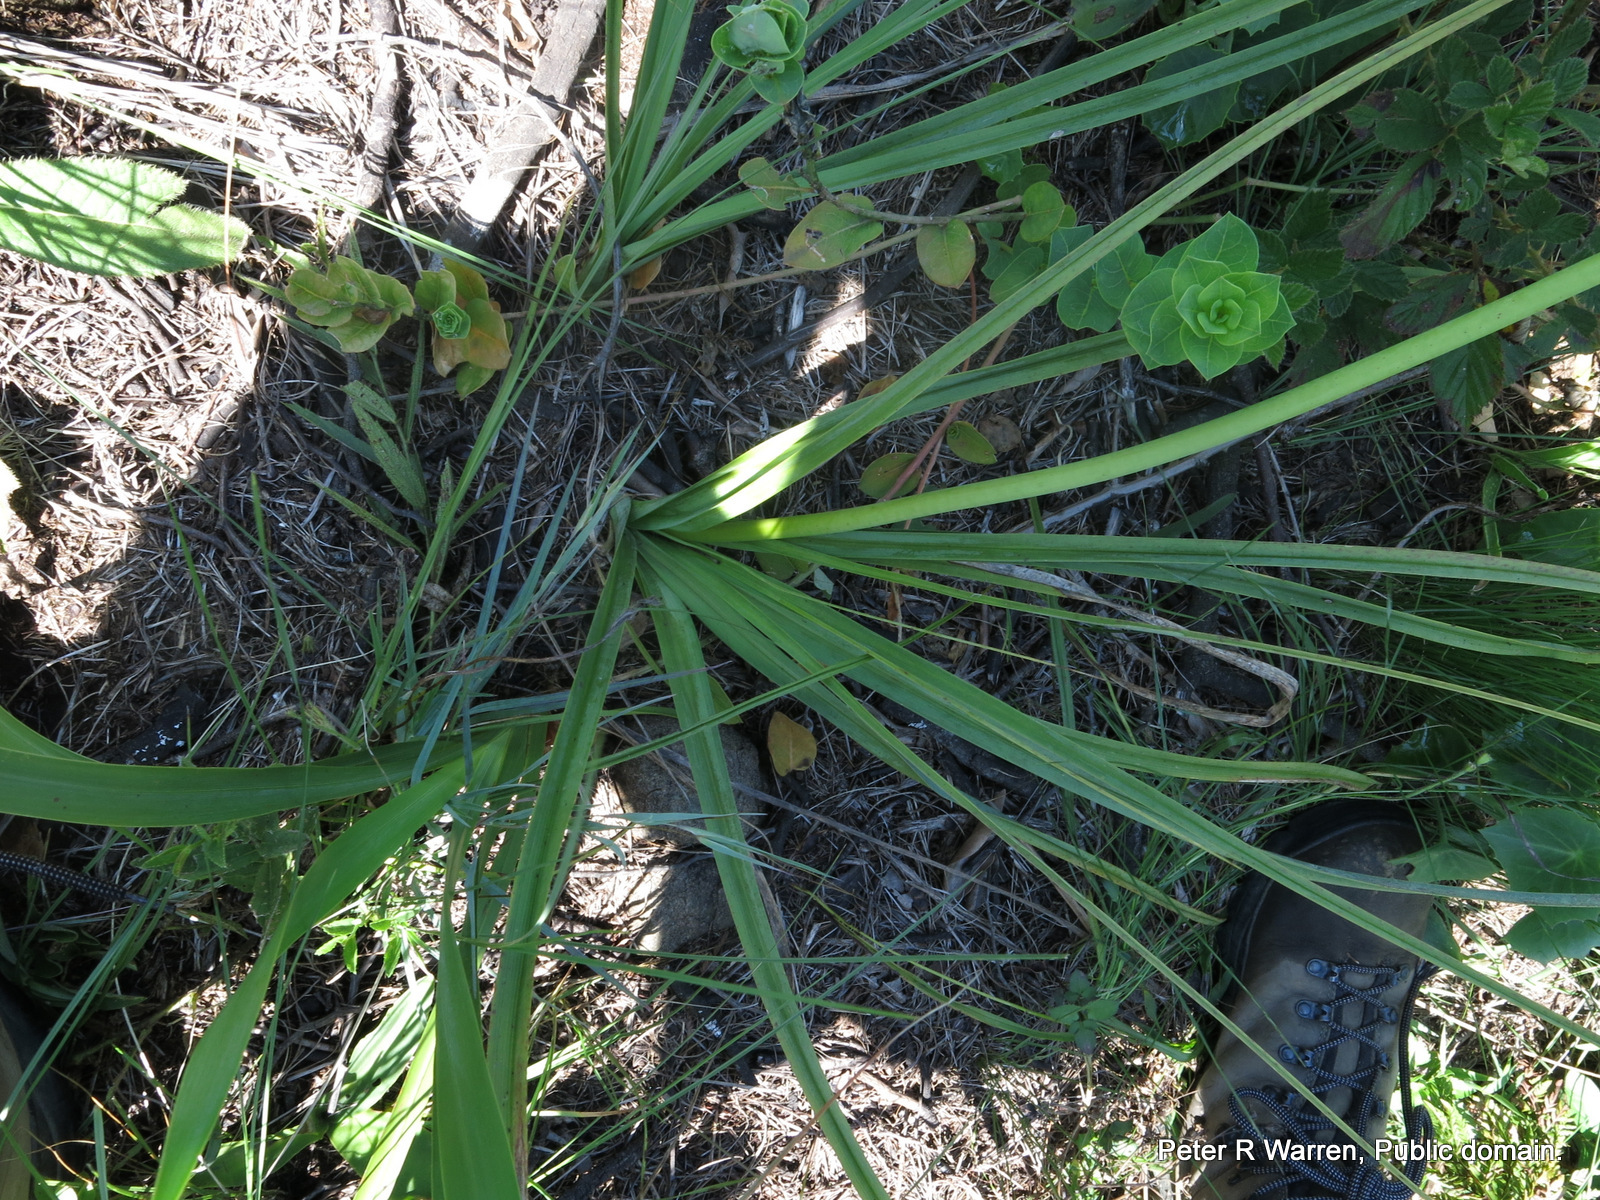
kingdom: Plantae
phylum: Tracheophyta
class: Liliopsida
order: Asparagales
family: Asphodelaceae
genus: Kniphofia
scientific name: Kniphofia laxiflora
